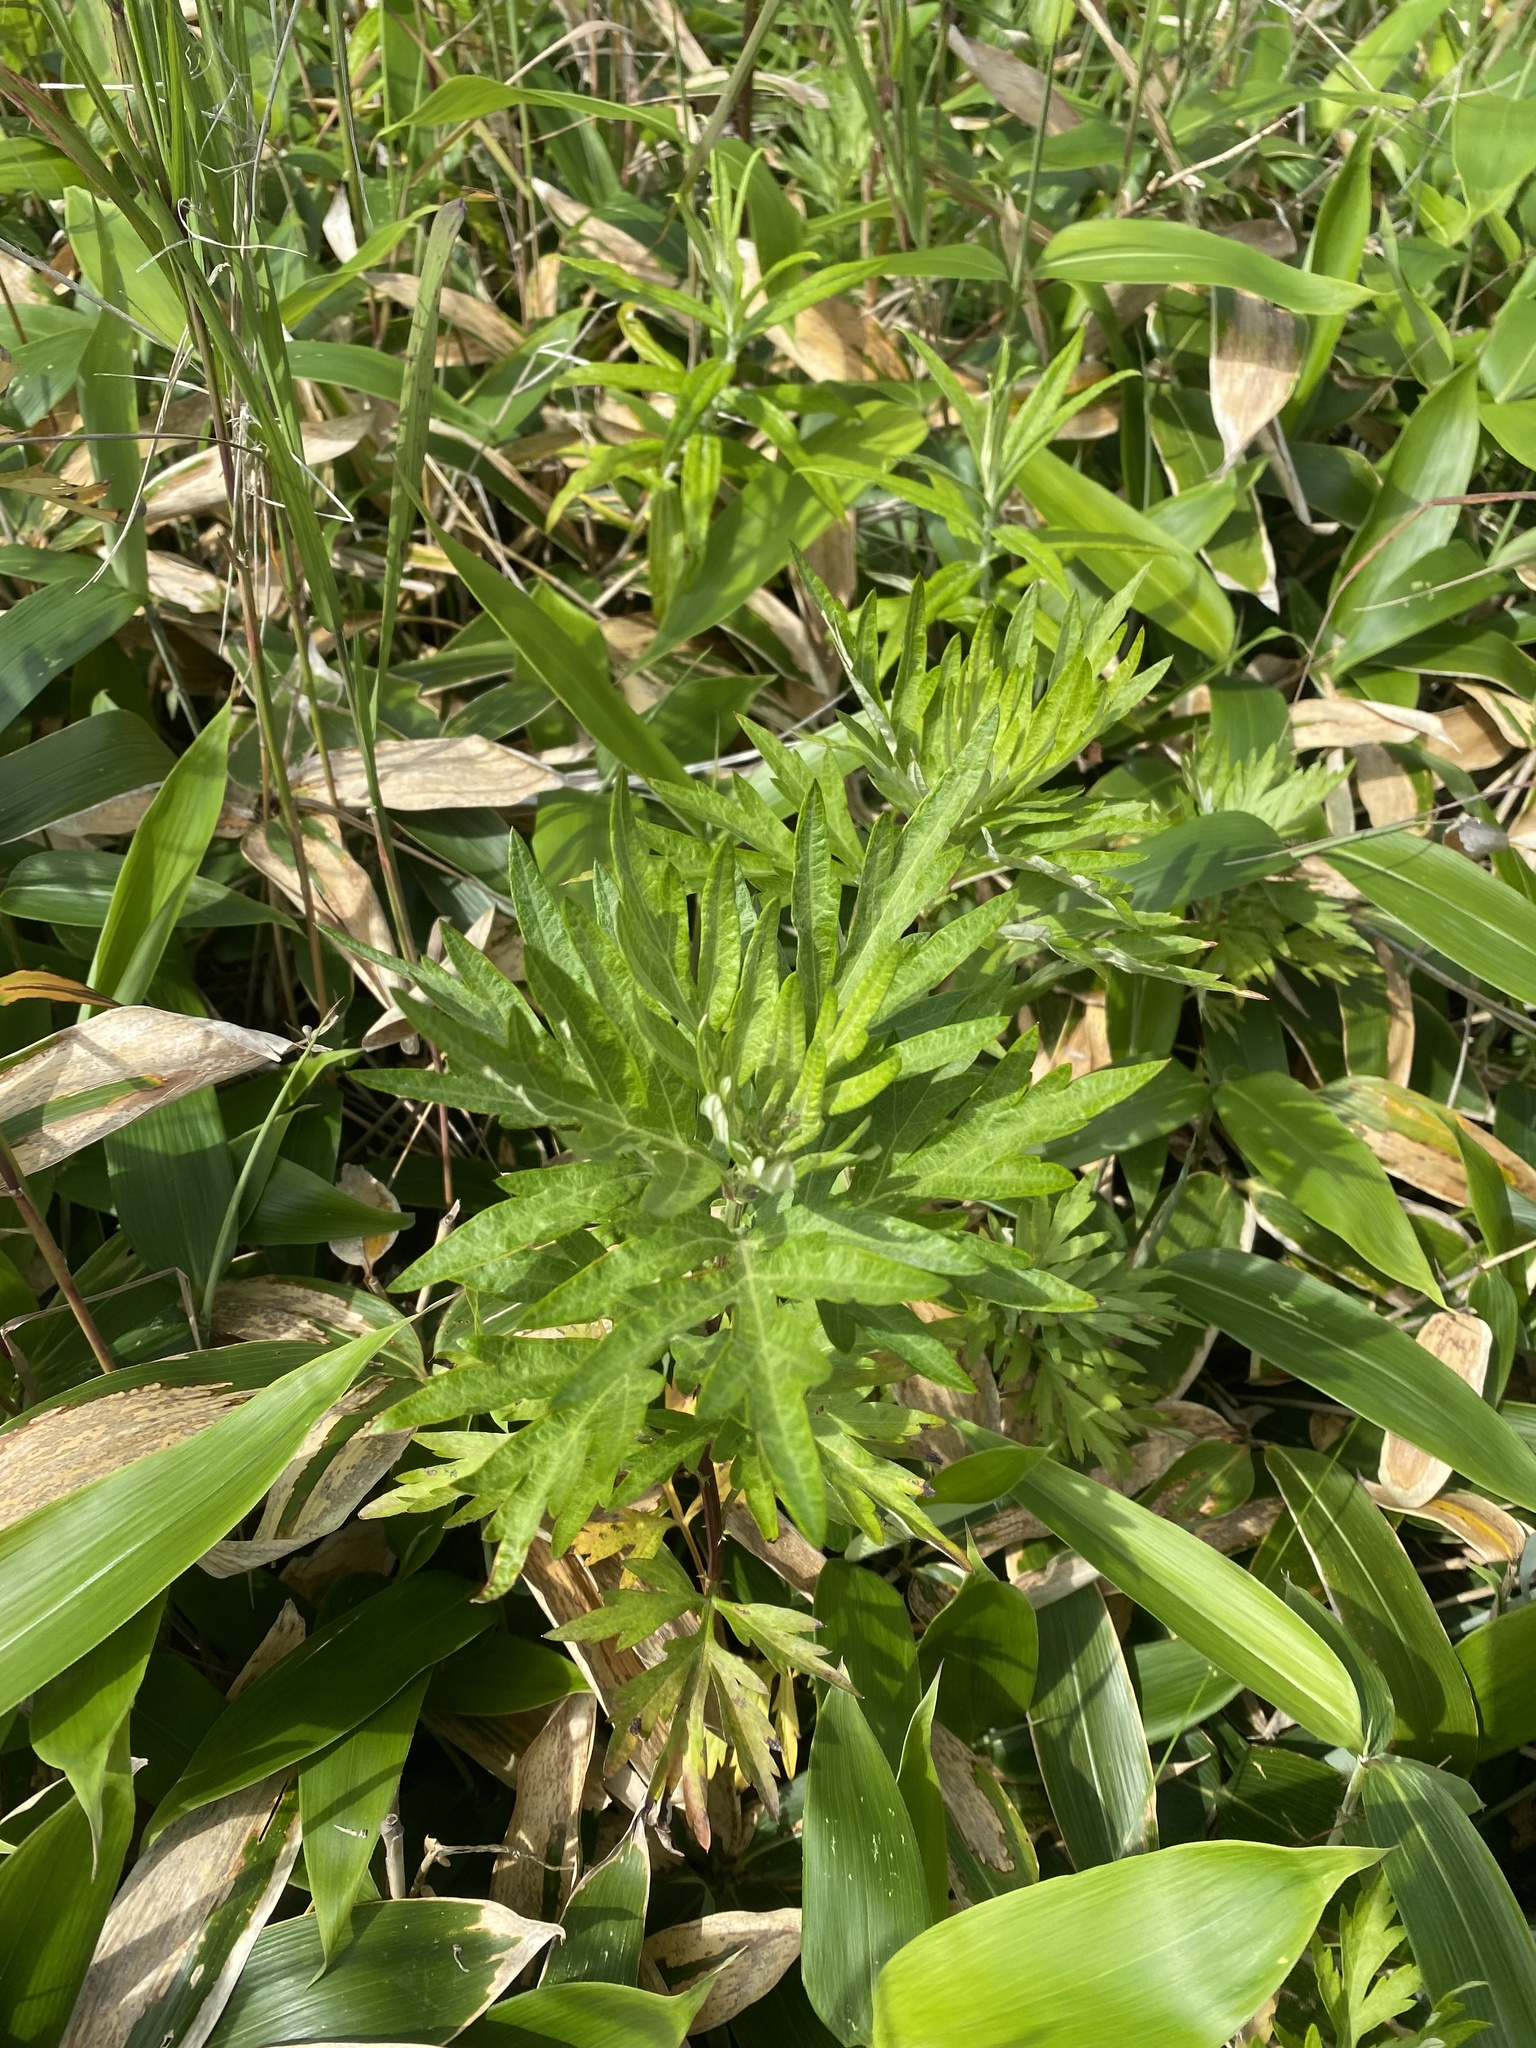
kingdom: Plantae
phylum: Tracheophyta
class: Magnoliopsida
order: Asterales
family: Asteraceae
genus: Jacobaea
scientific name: Jacobaea cannabifolia
